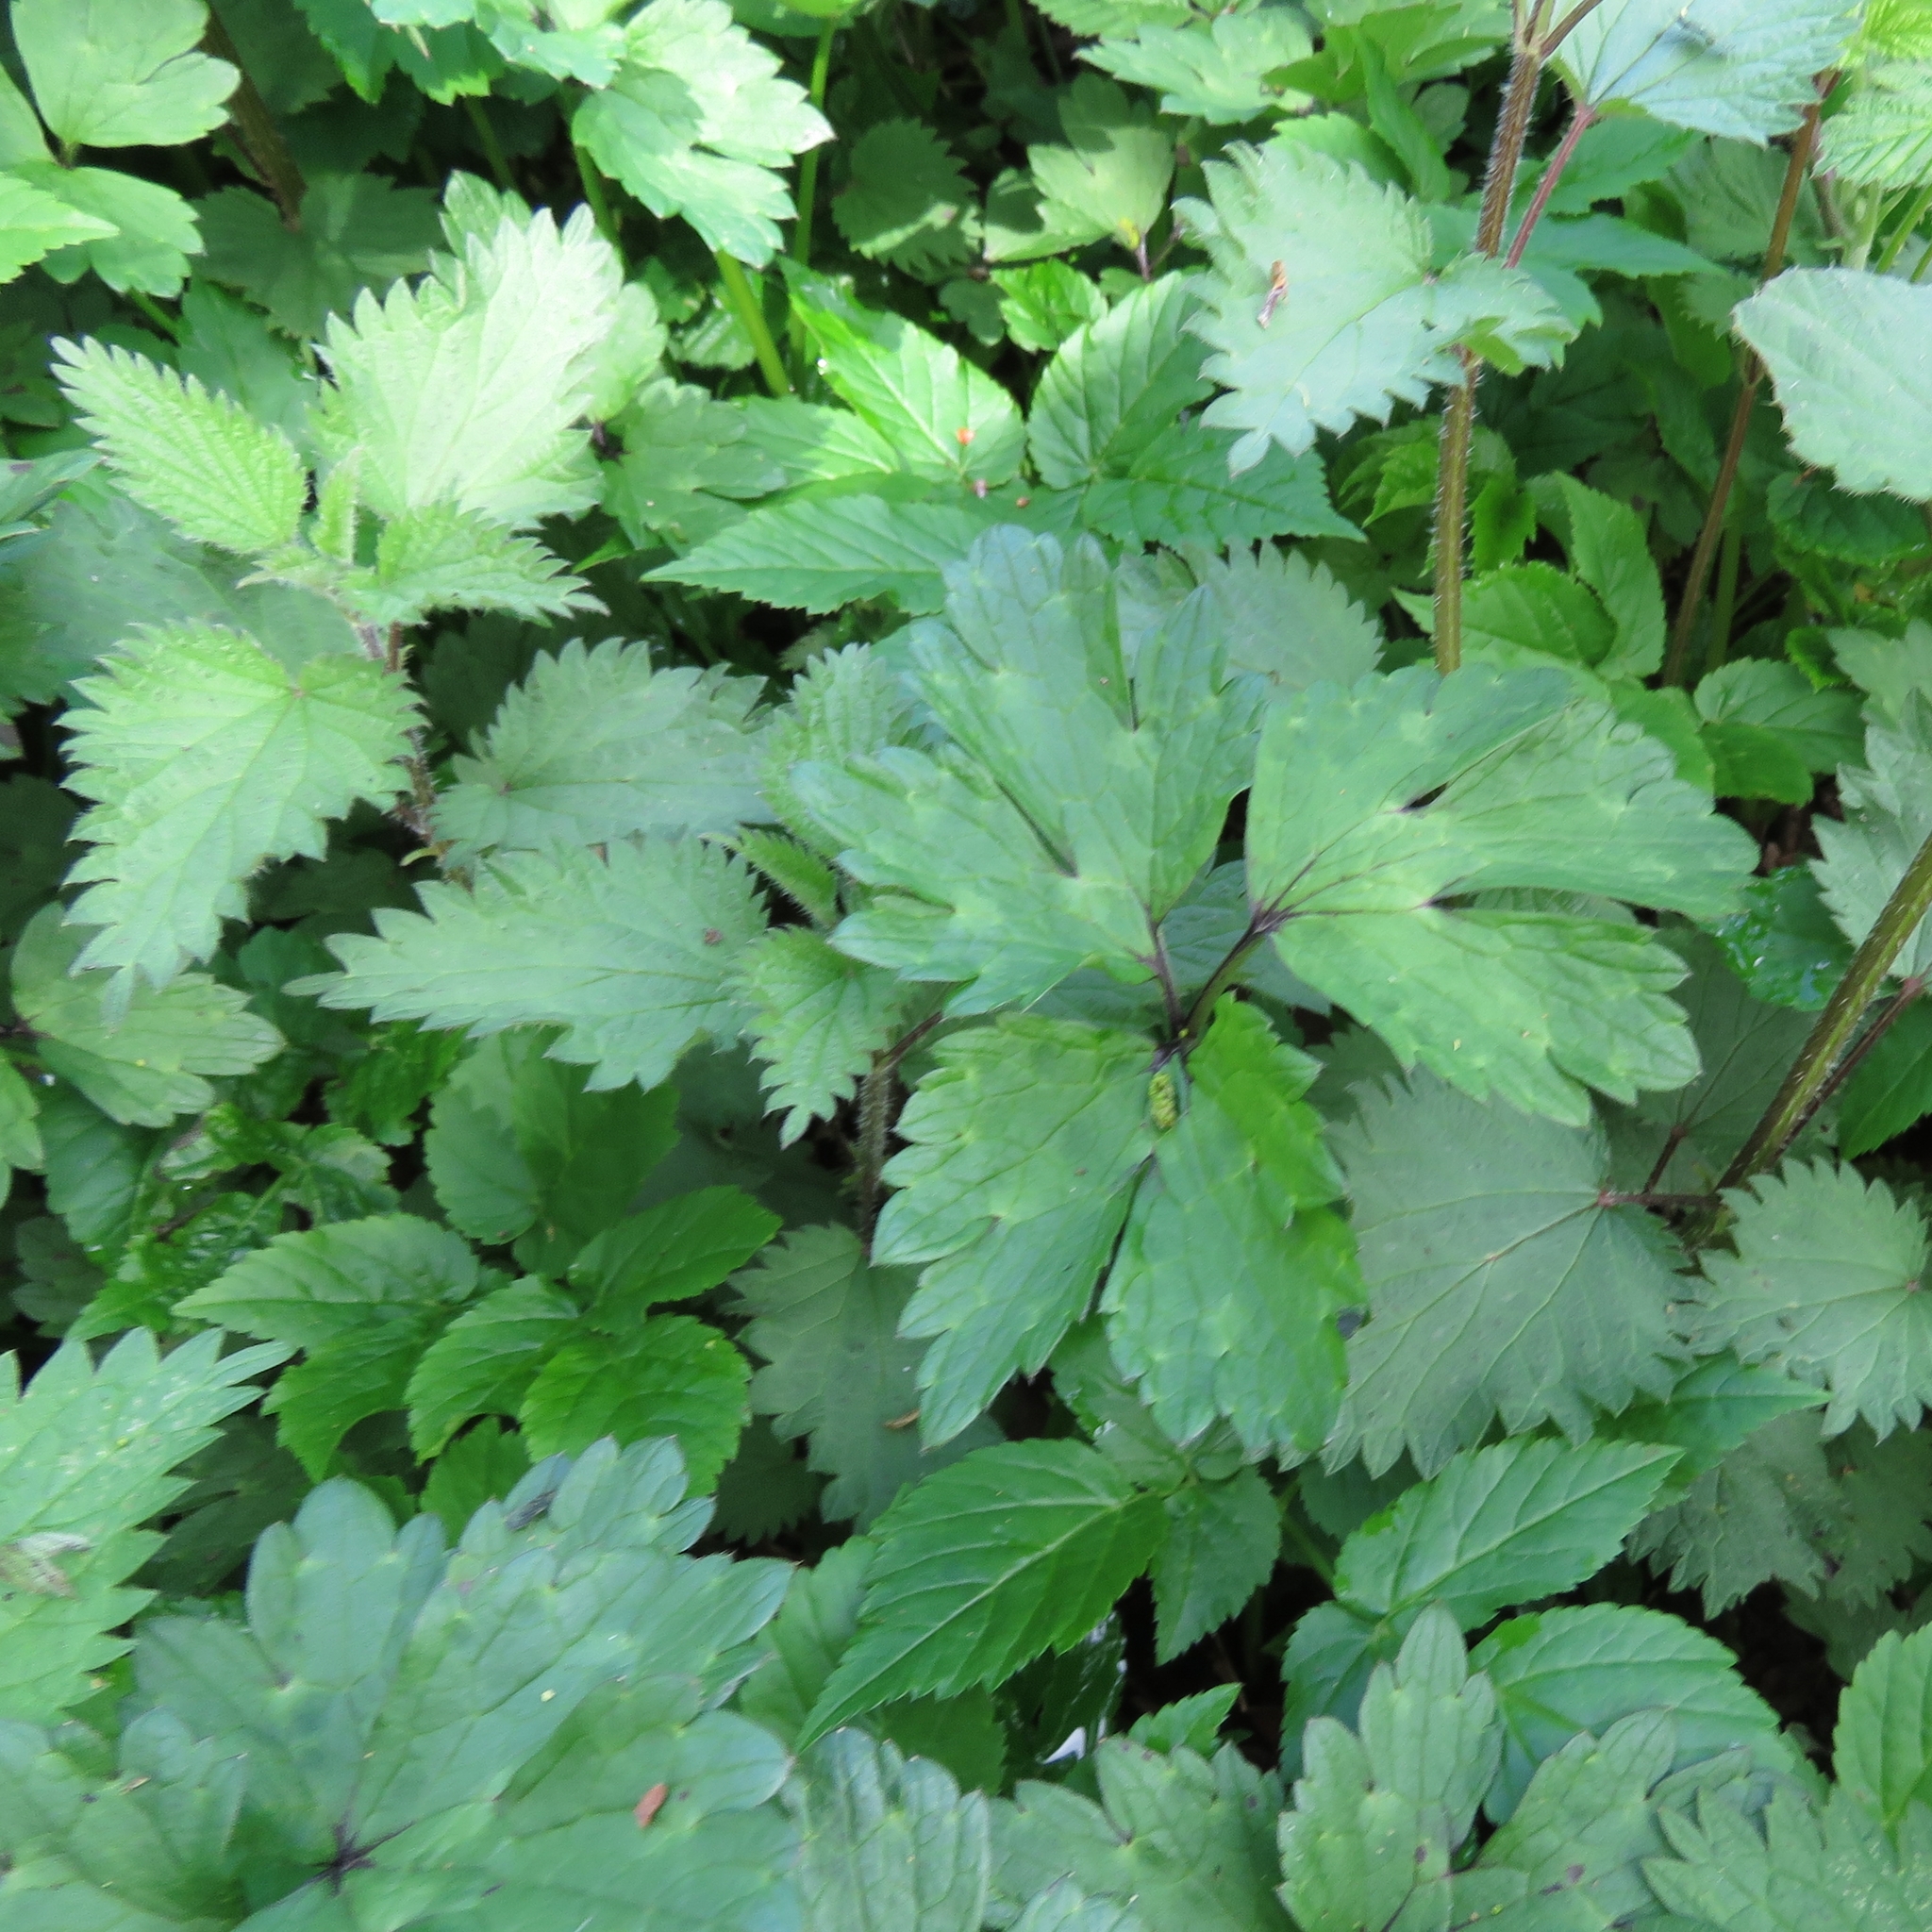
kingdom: Plantae
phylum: Tracheophyta
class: Magnoliopsida
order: Ranunculales
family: Ranunculaceae
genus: Ranunculus
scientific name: Ranunculus repens
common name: Creeping buttercup
